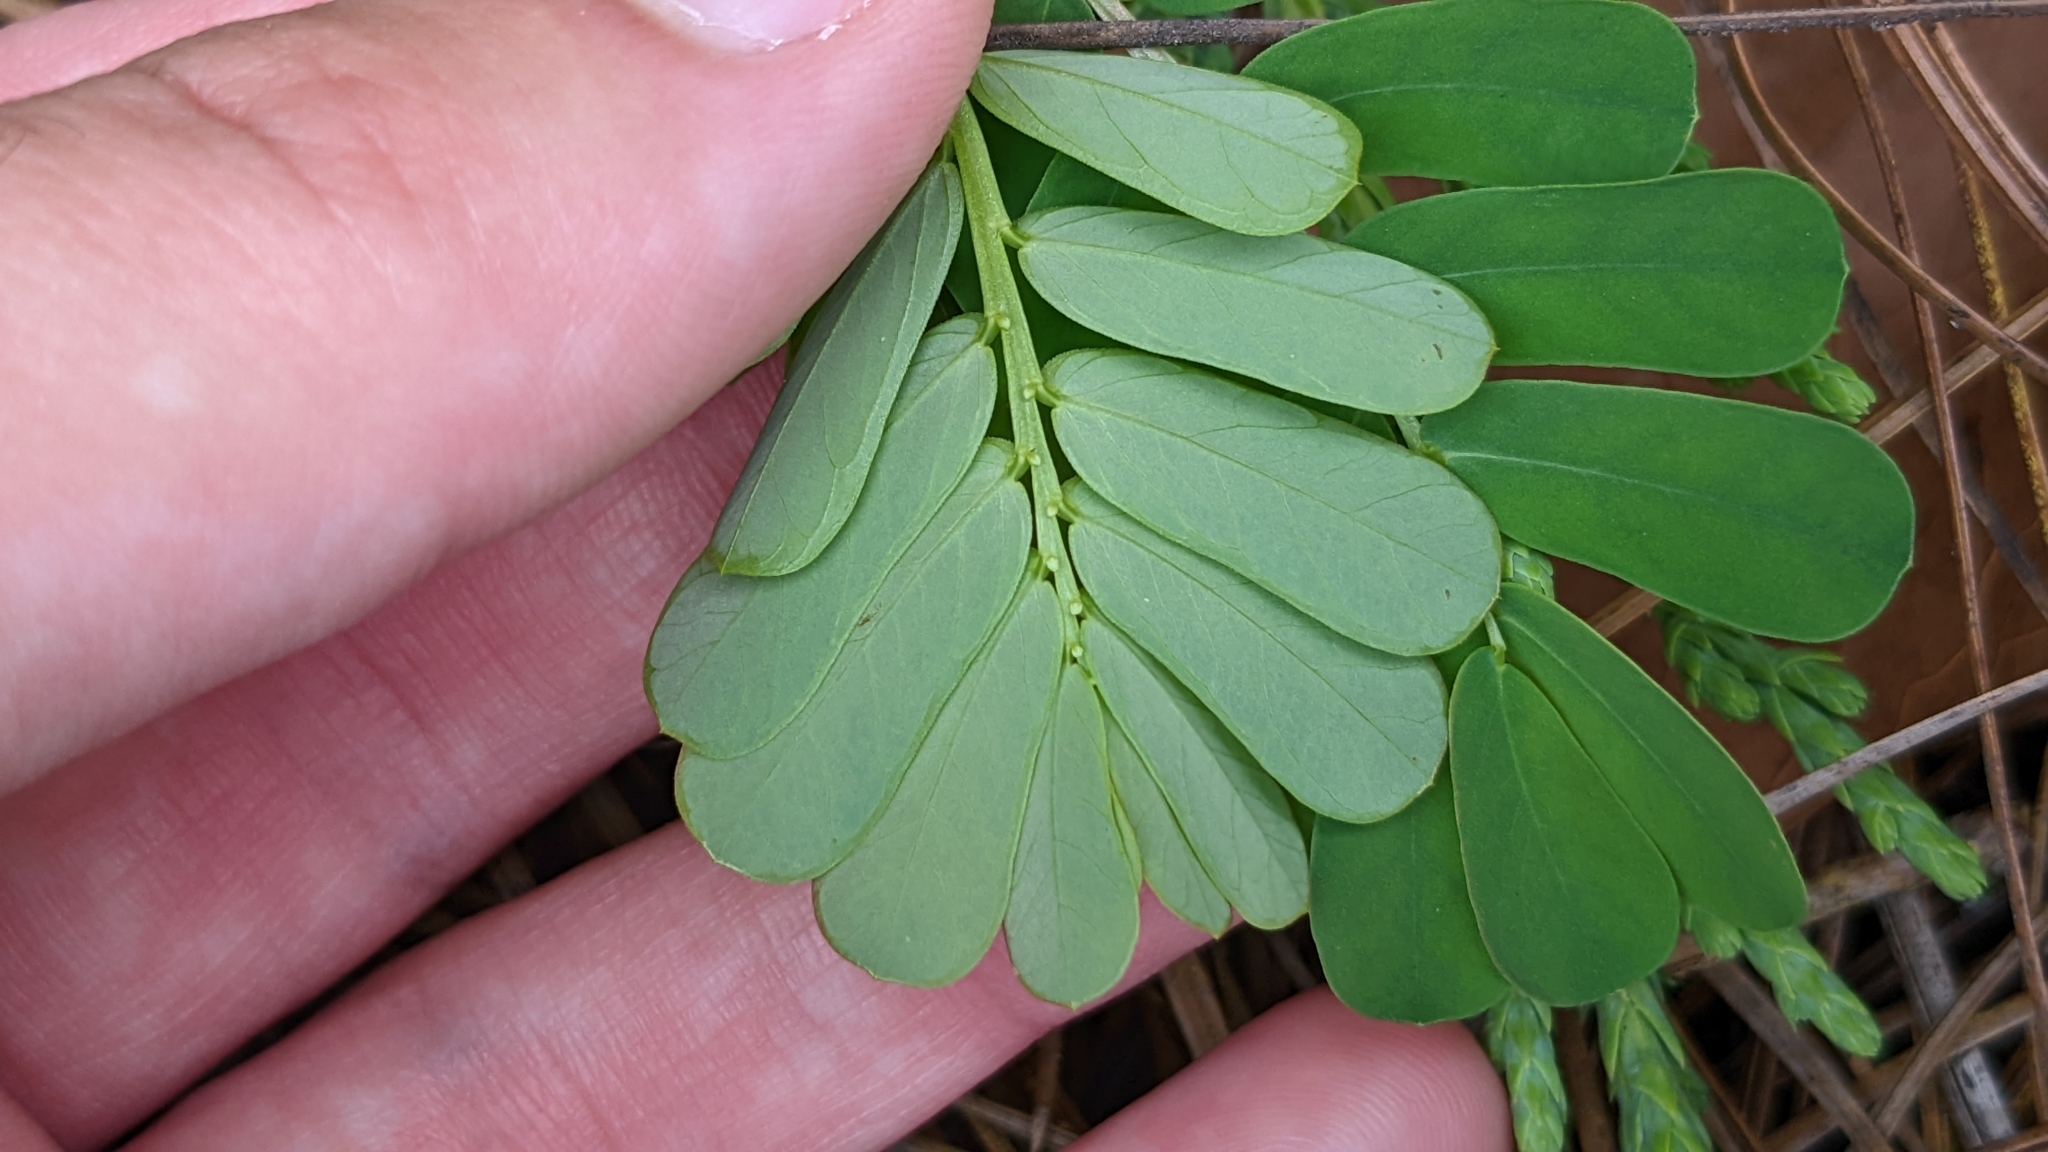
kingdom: Plantae
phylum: Tracheophyta
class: Magnoliopsida
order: Malpighiales
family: Phyllanthaceae
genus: Phyllanthus
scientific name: Phyllanthus urinaria
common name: Chamber bitter
